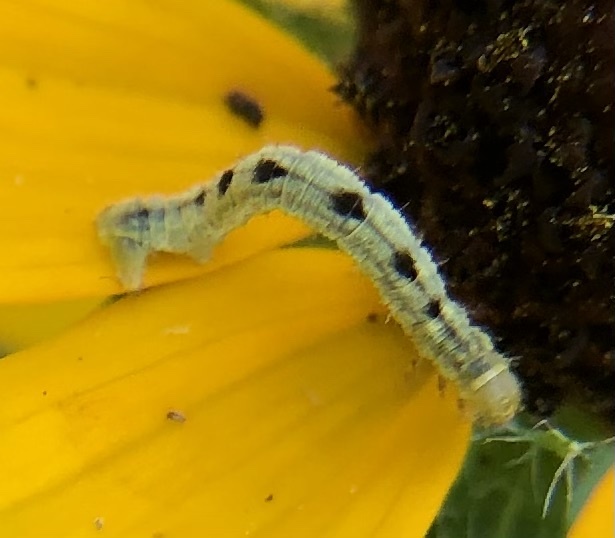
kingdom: Animalia
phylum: Arthropoda
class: Insecta
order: Lepidoptera
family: Geometridae
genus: Eupithecia
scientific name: Eupithecia miserulata
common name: Common eupithecia
